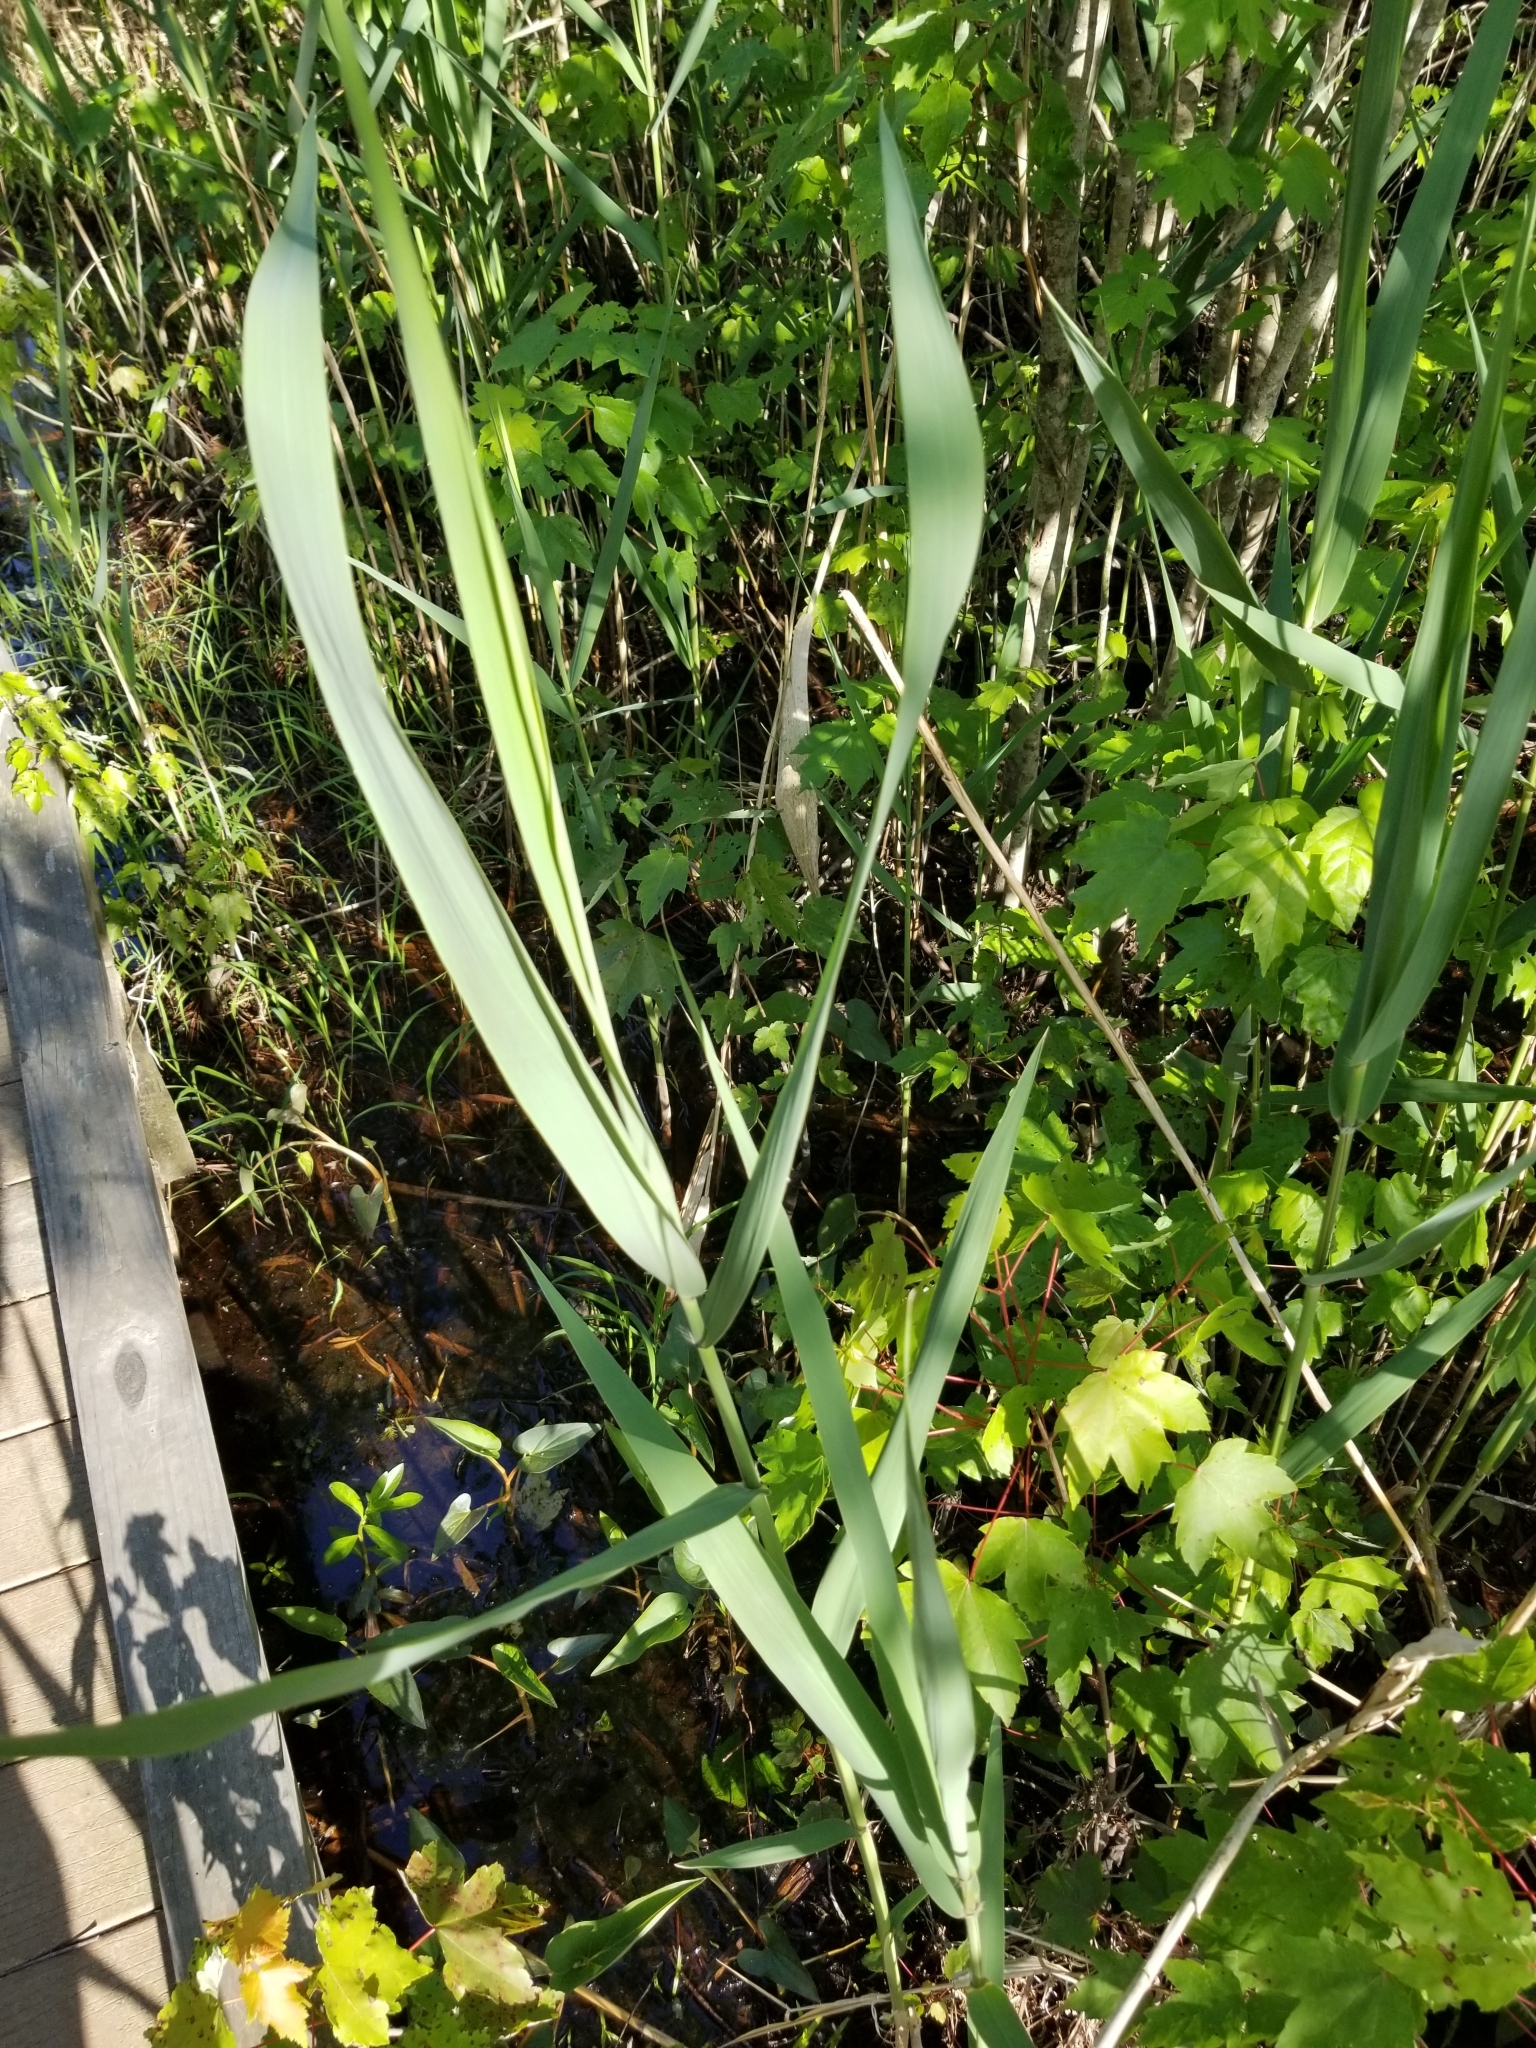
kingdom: Plantae
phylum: Tracheophyta
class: Liliopsida
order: Poales
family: Poaceae
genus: Phragmites
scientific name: Phragmites australis
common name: Common reed
